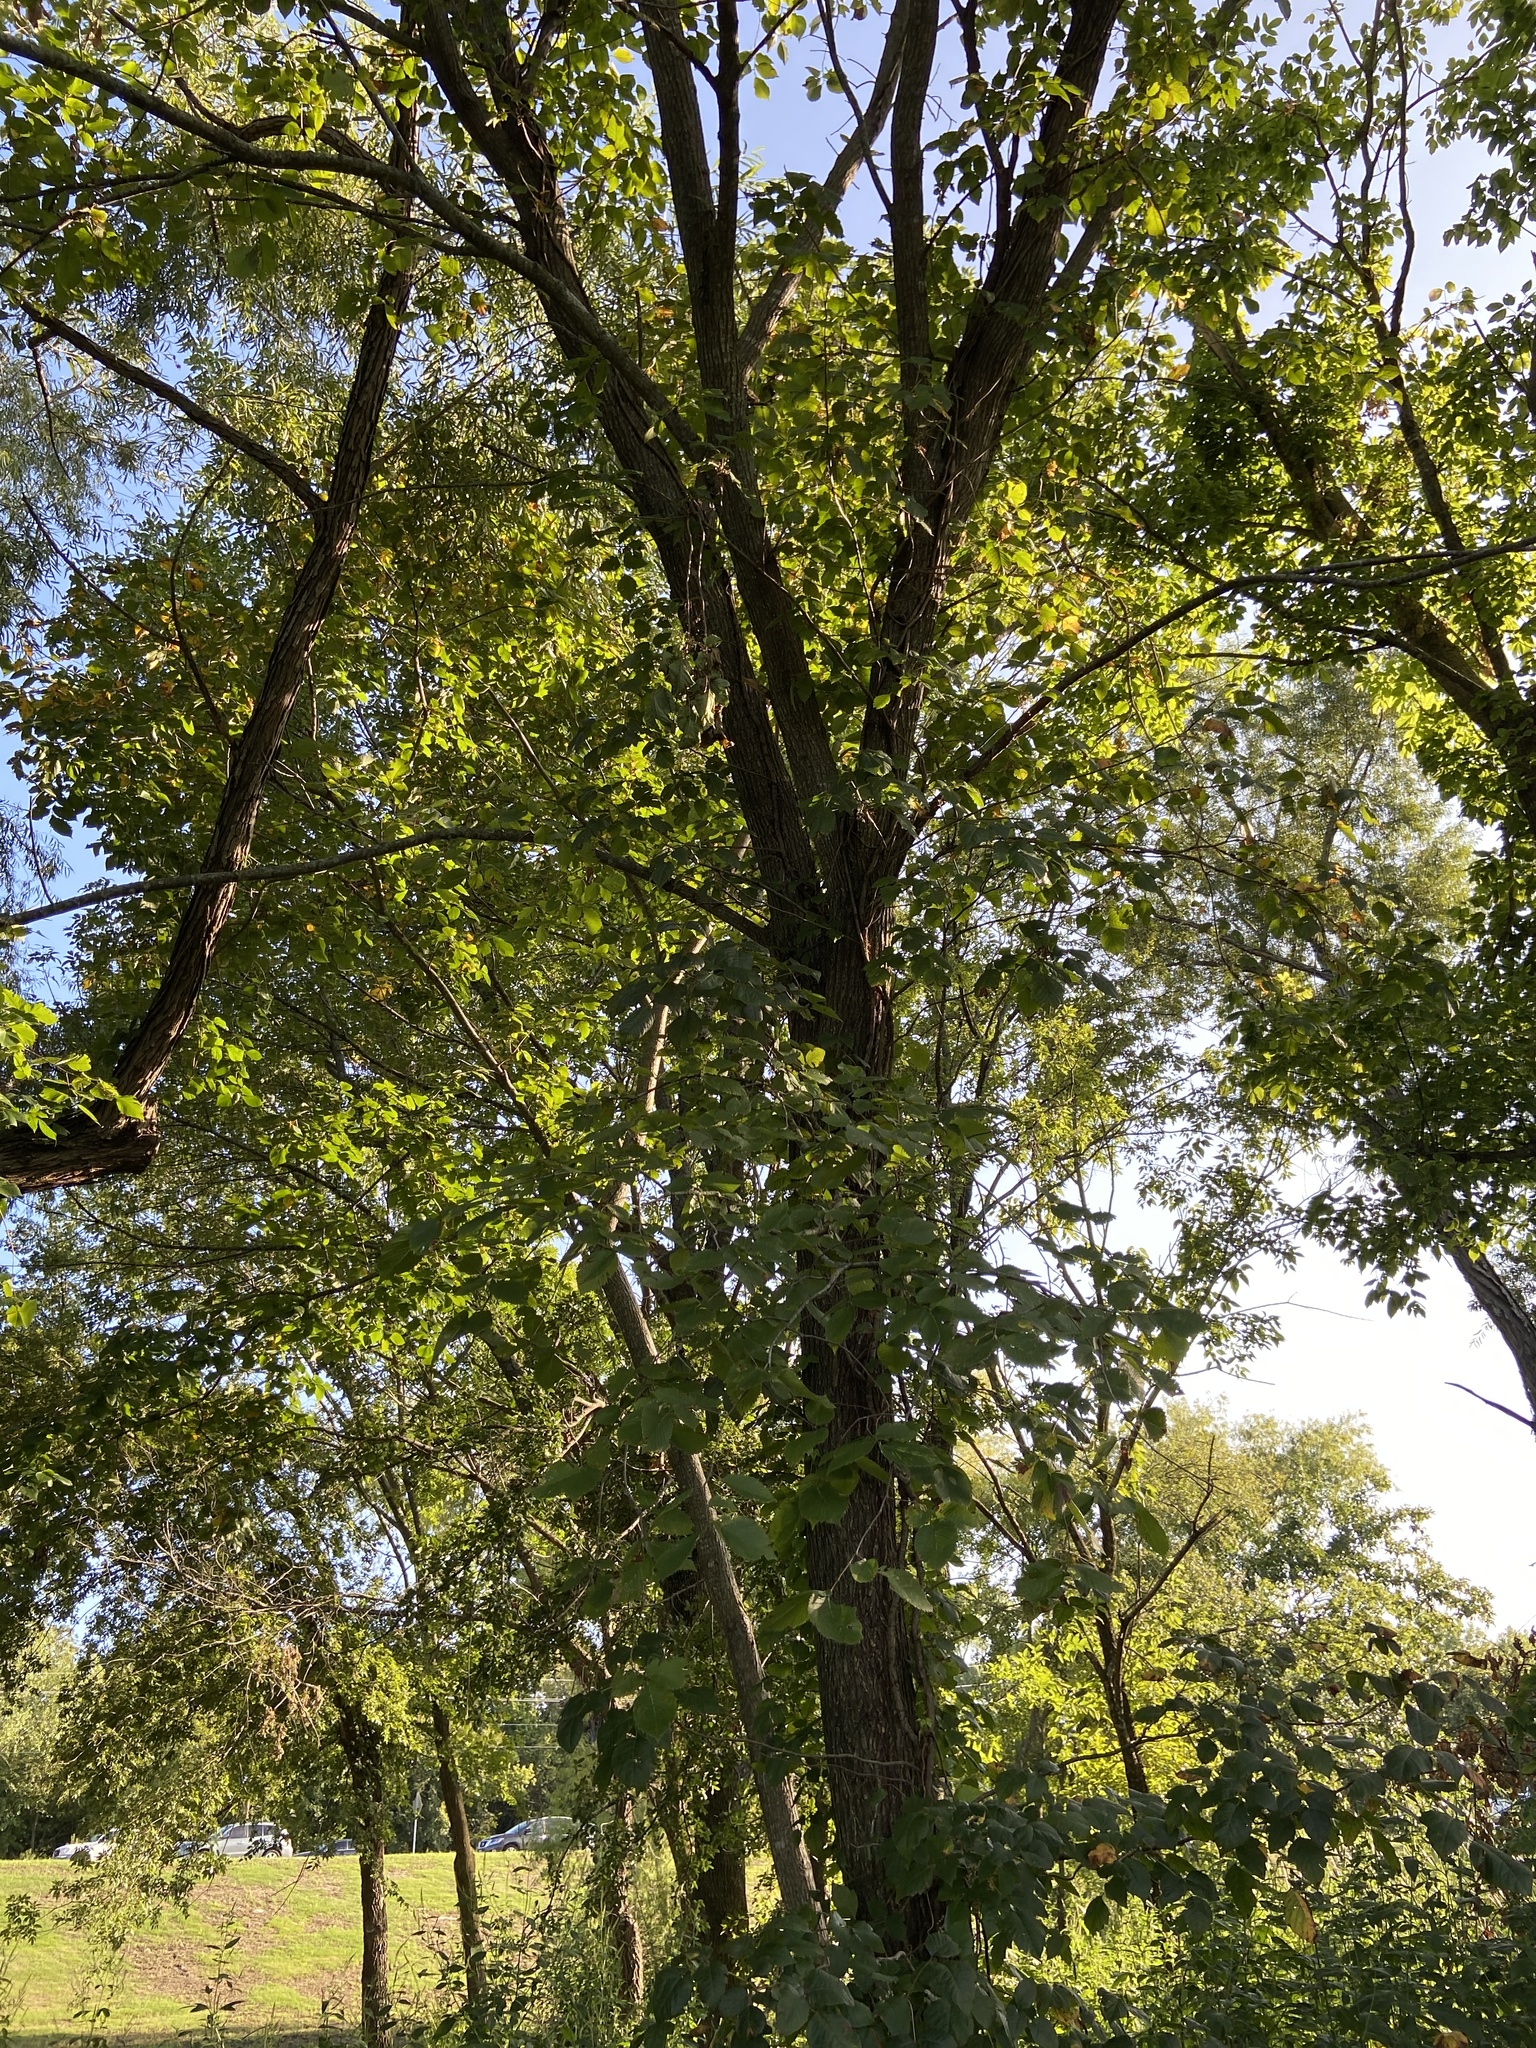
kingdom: Plantae
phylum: Tracheophyta
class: Magnoliopsida
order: Rosales
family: Ulmaceae
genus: Ulmus
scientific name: Ulmus americana
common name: American elm
